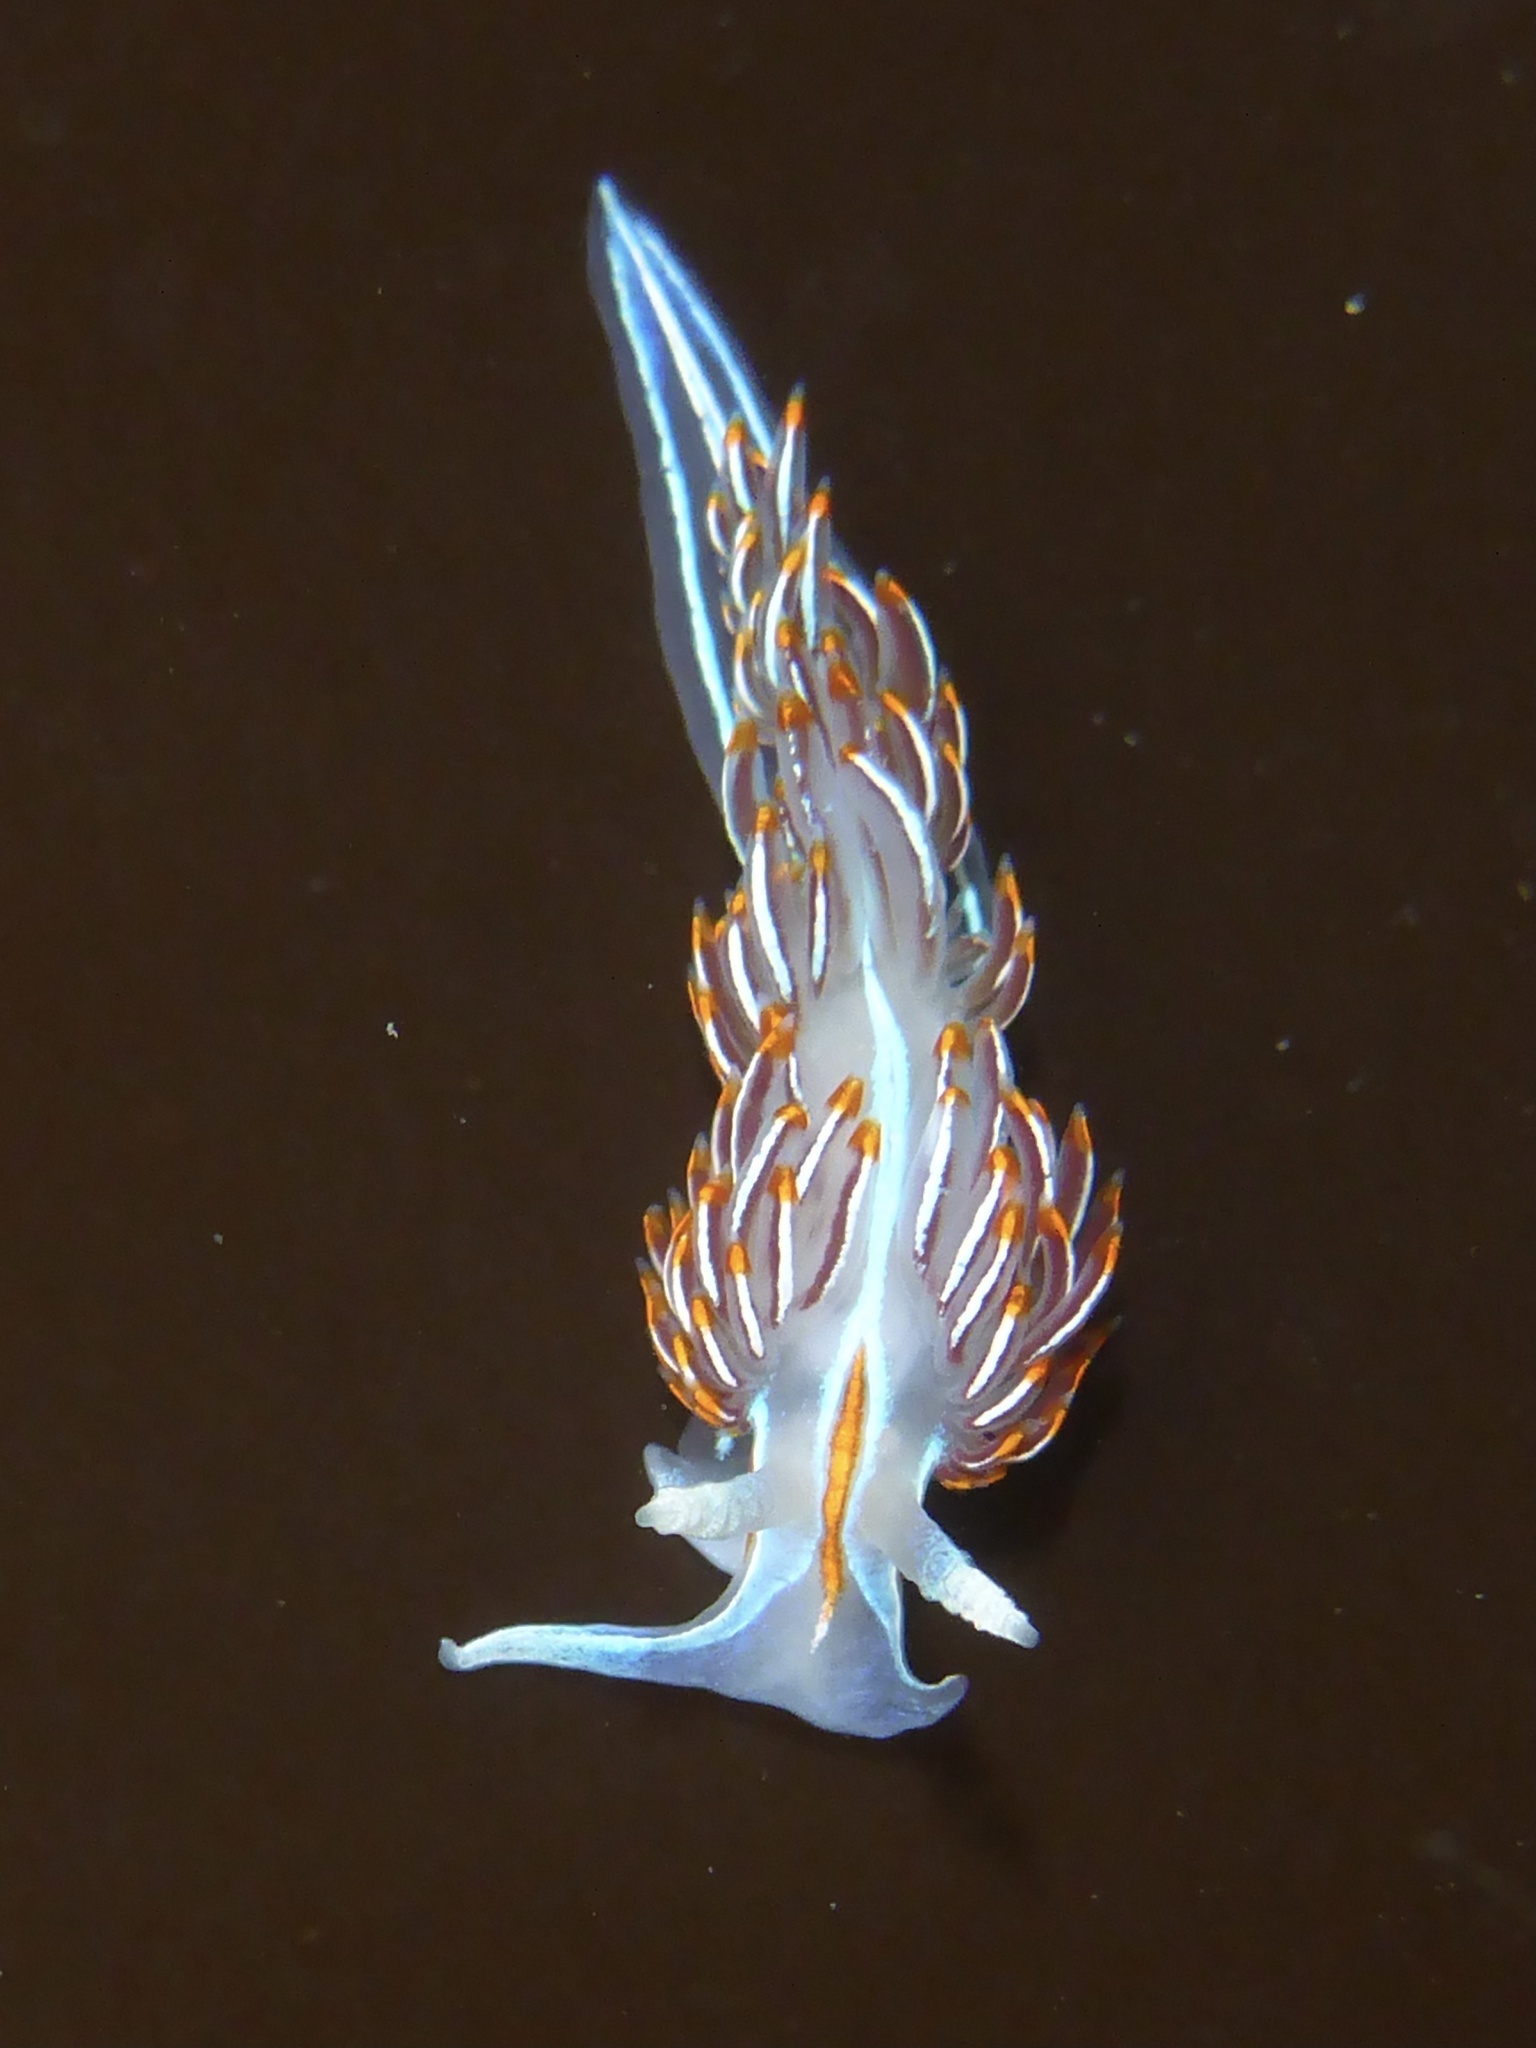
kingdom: Animalia
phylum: Mollusca
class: Gastropoda
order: Nudibranchia
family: Myrrhinidae
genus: Hermissenda
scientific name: Hermissenda crassicornis
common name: Hermissenda
